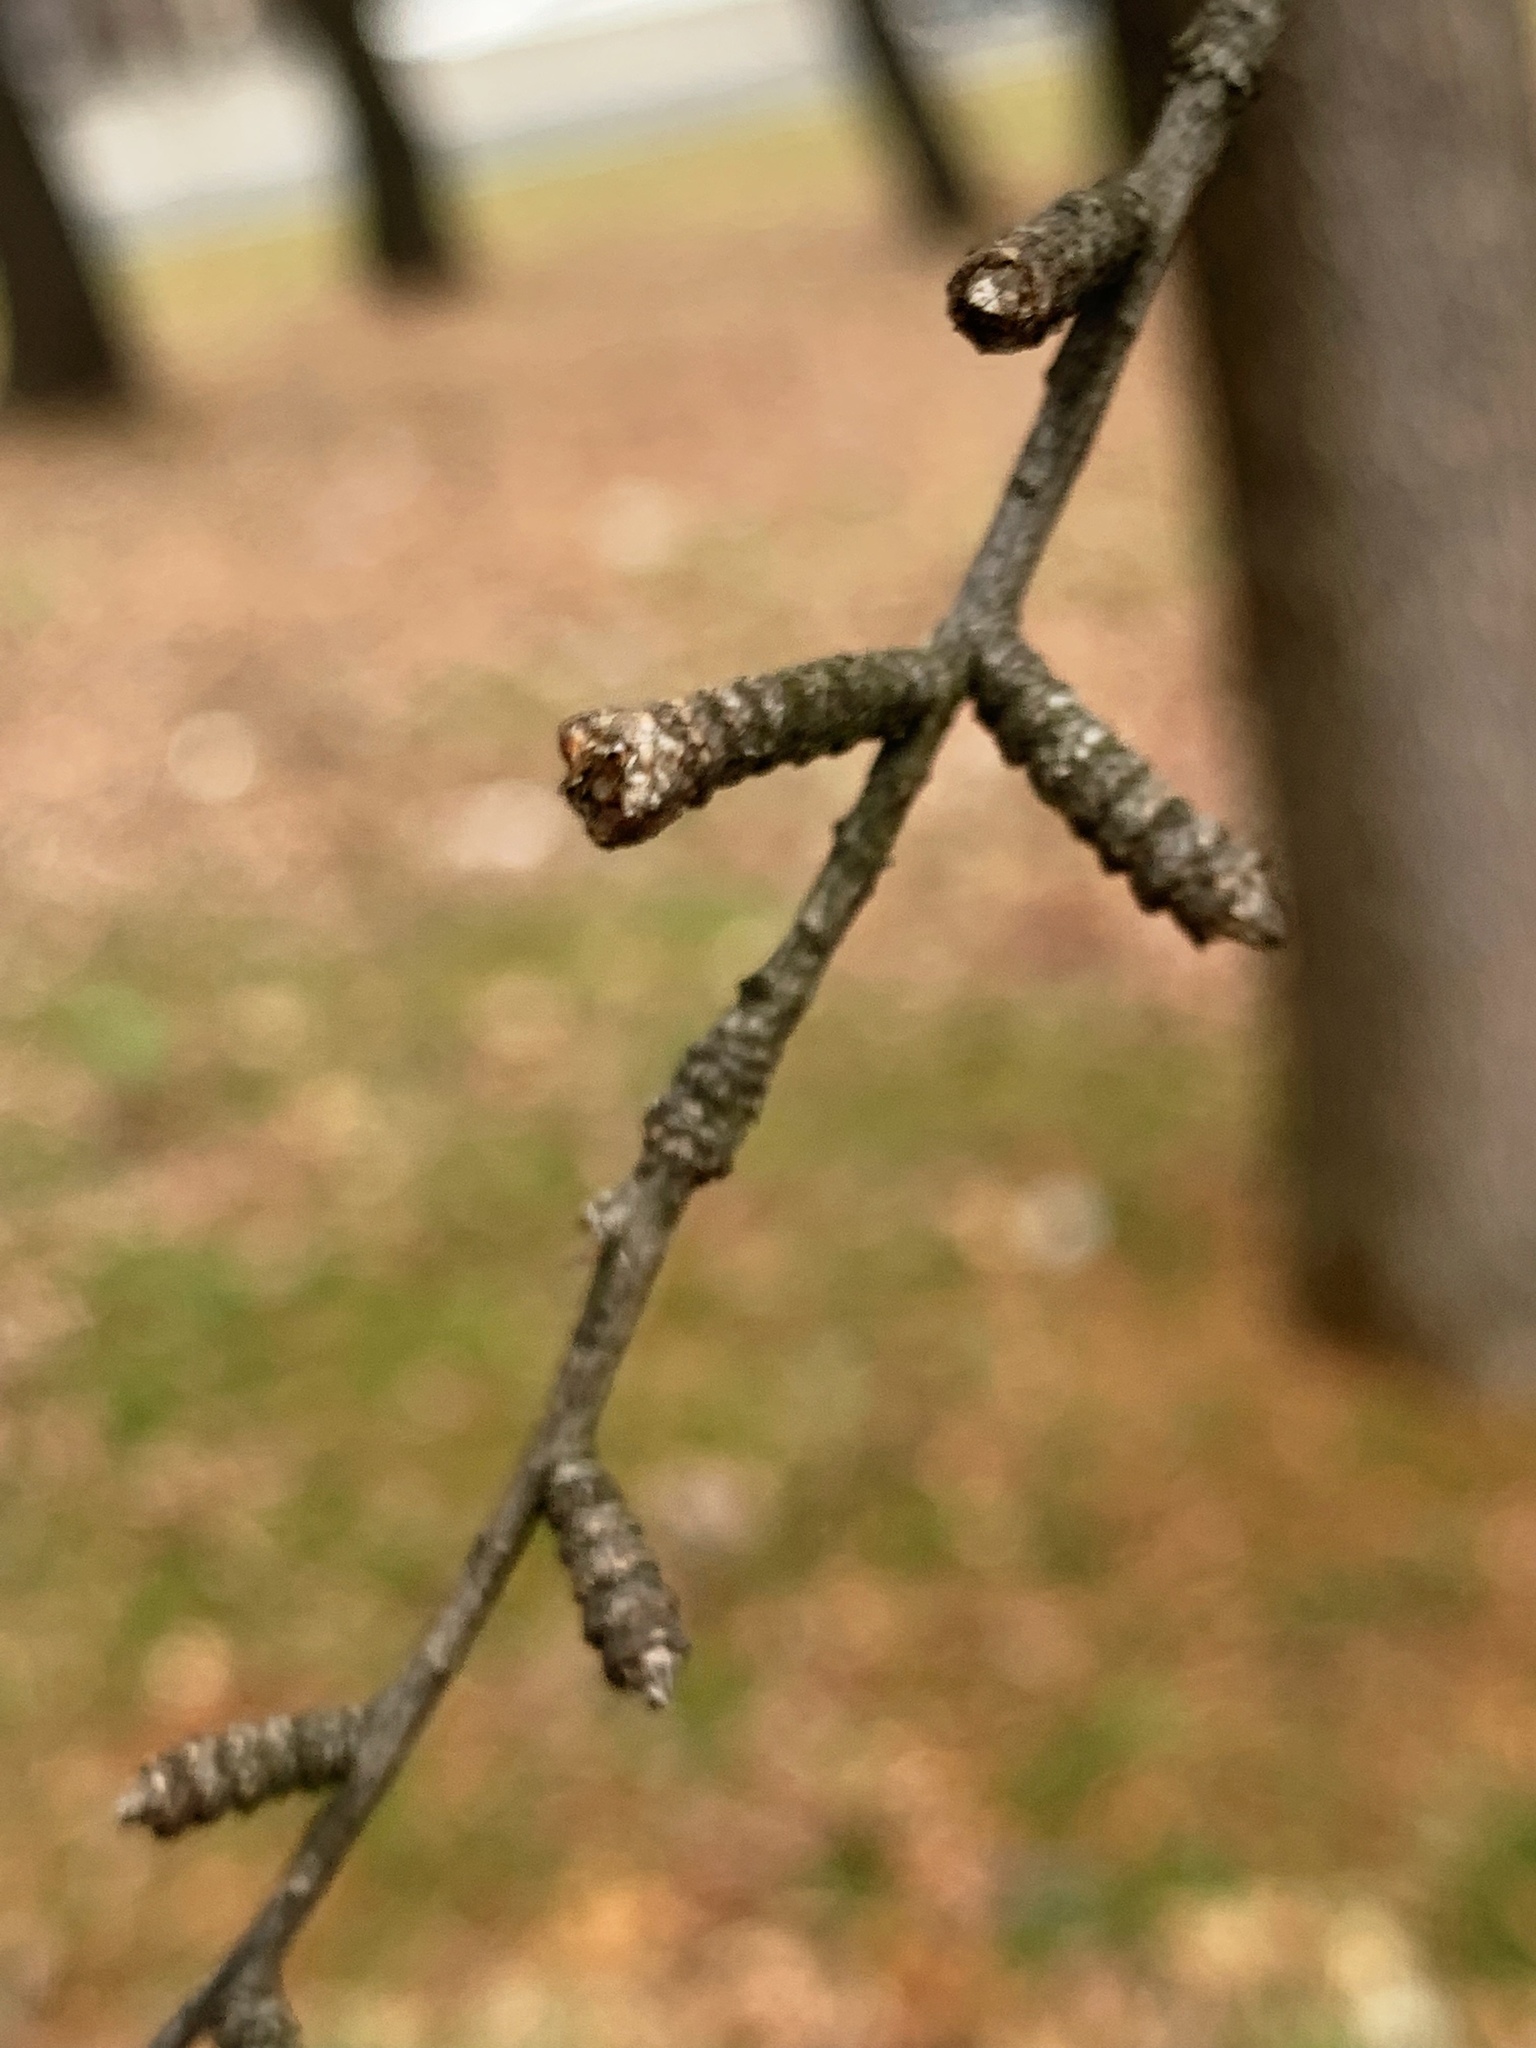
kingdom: Plantae
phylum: Tracheophyta
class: Pinopsida
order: Pinales
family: Pinaceae
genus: Pseudolarix
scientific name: Pseudolarix amabilis
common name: Chinese golden larch
